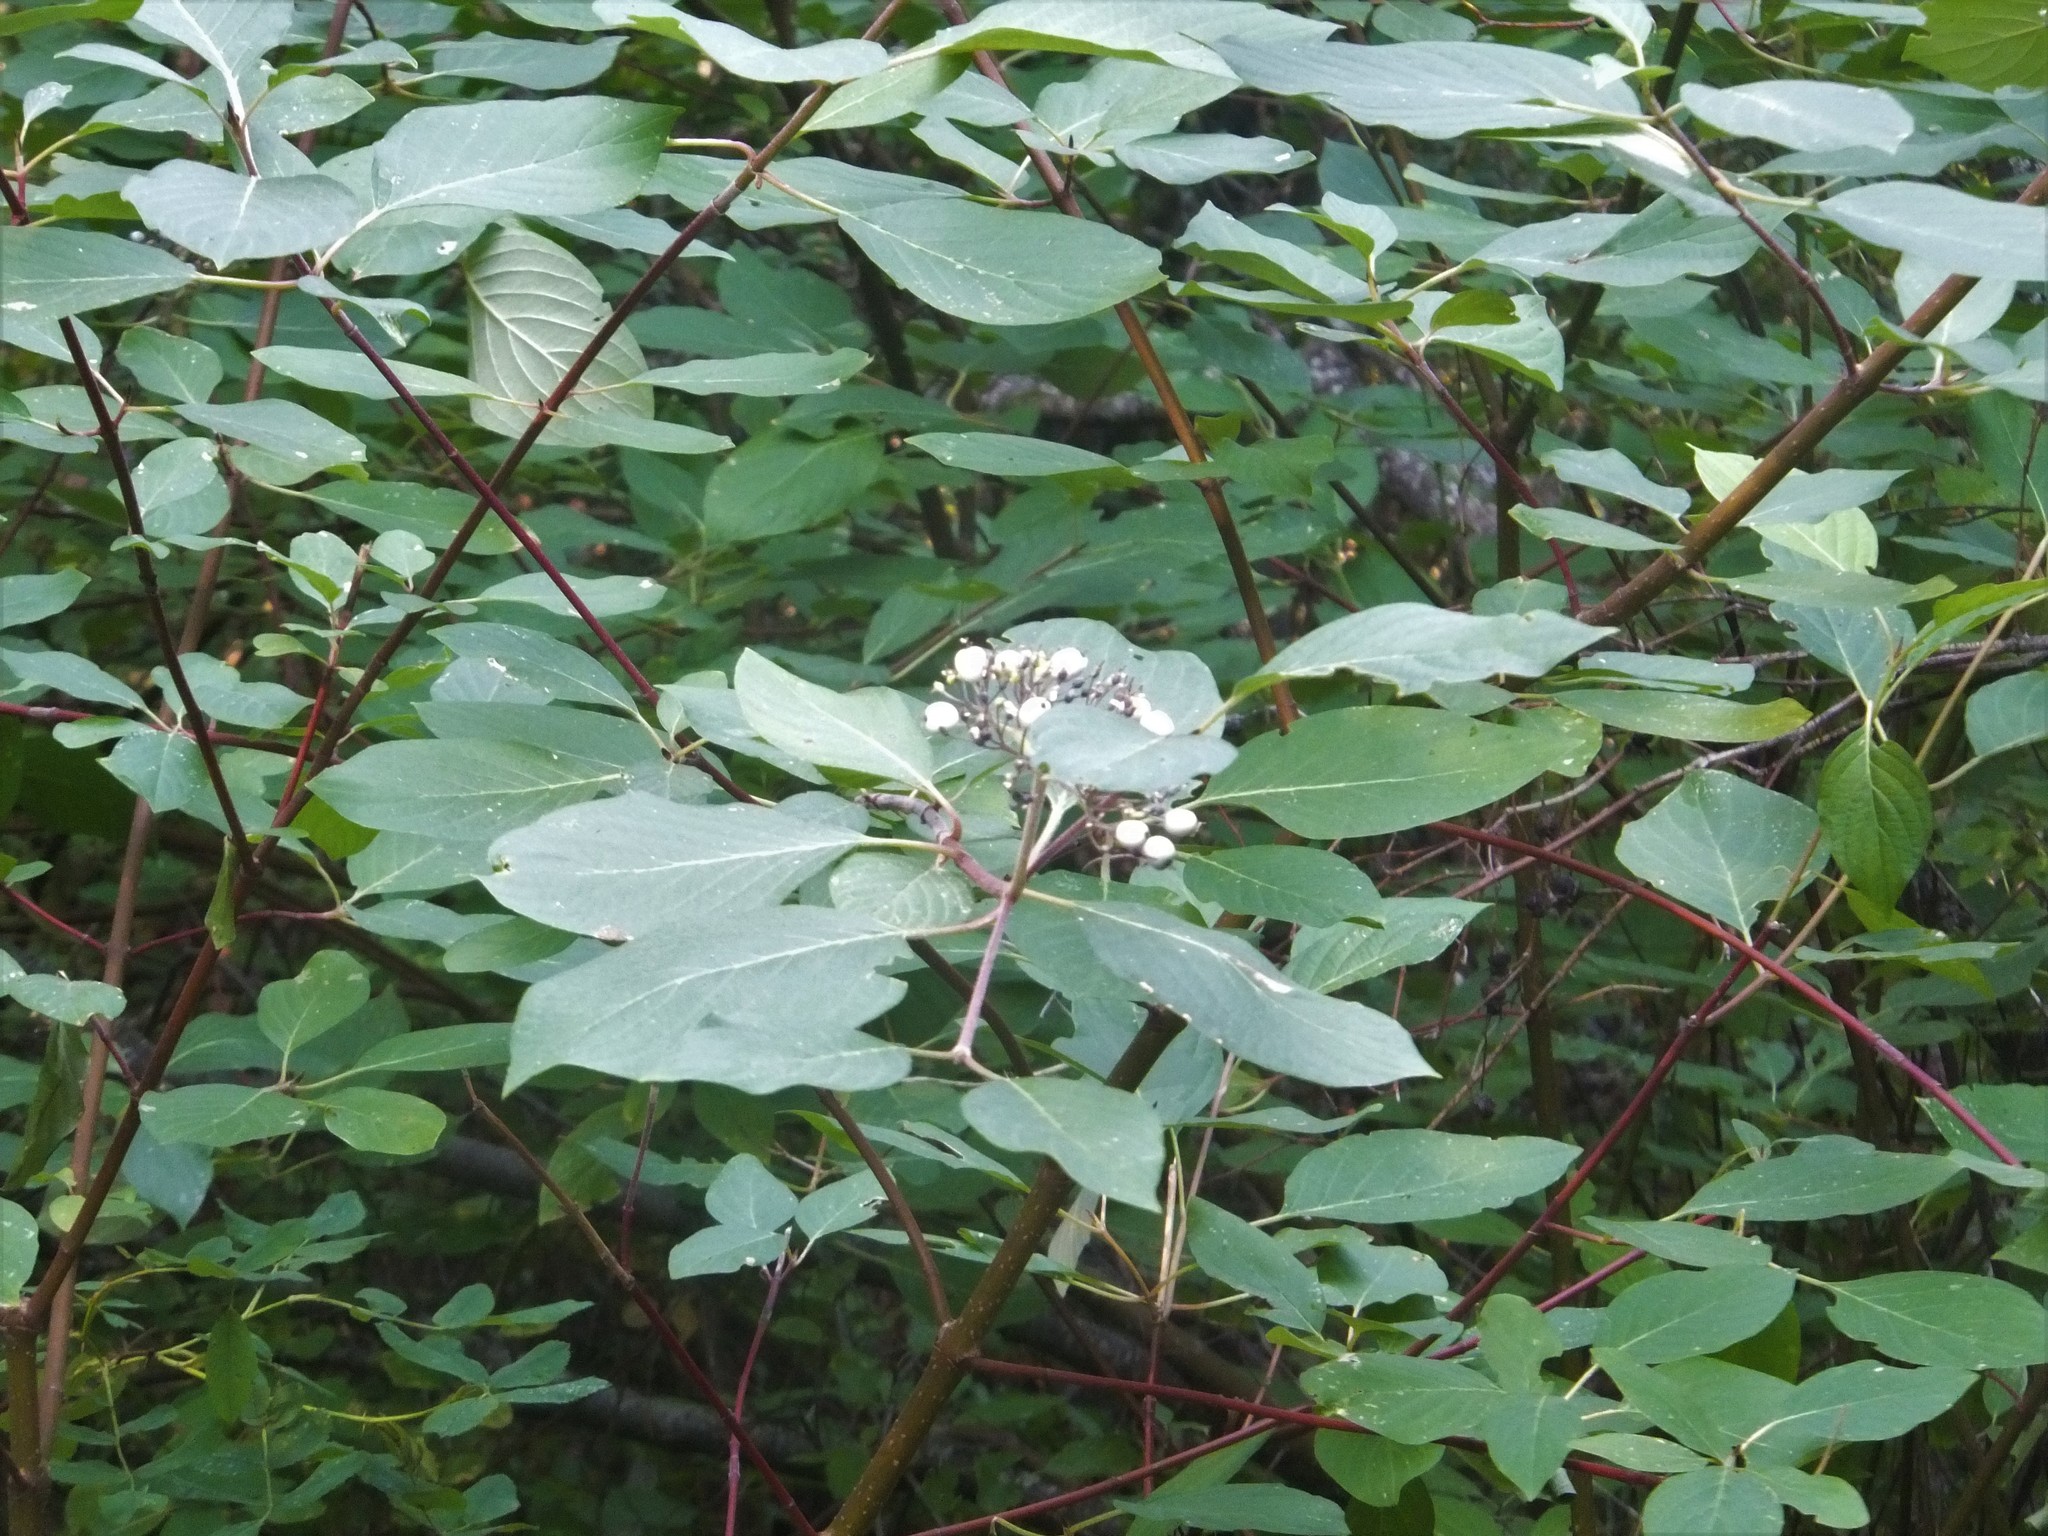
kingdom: Plantae
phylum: Tracheophyta
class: Magnoliopsida
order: Cornales
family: Cornaceae
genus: Cornus
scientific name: Cornus sericea
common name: Red-osier dogwood
